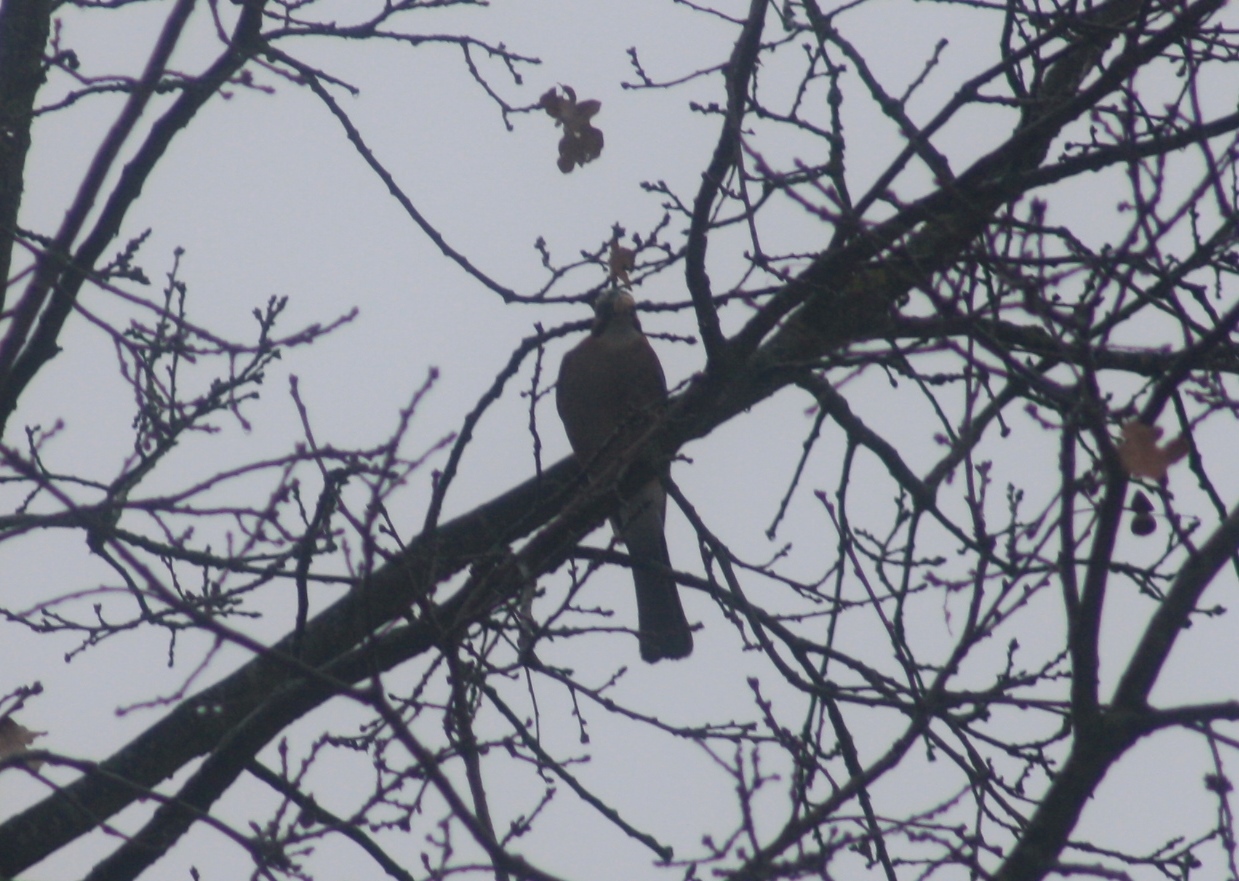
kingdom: Animalia
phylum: Chordata
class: Aves
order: Passeriformes
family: Corvidae
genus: Garrulus
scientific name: Garrulus glandarius
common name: Eurasian jay
